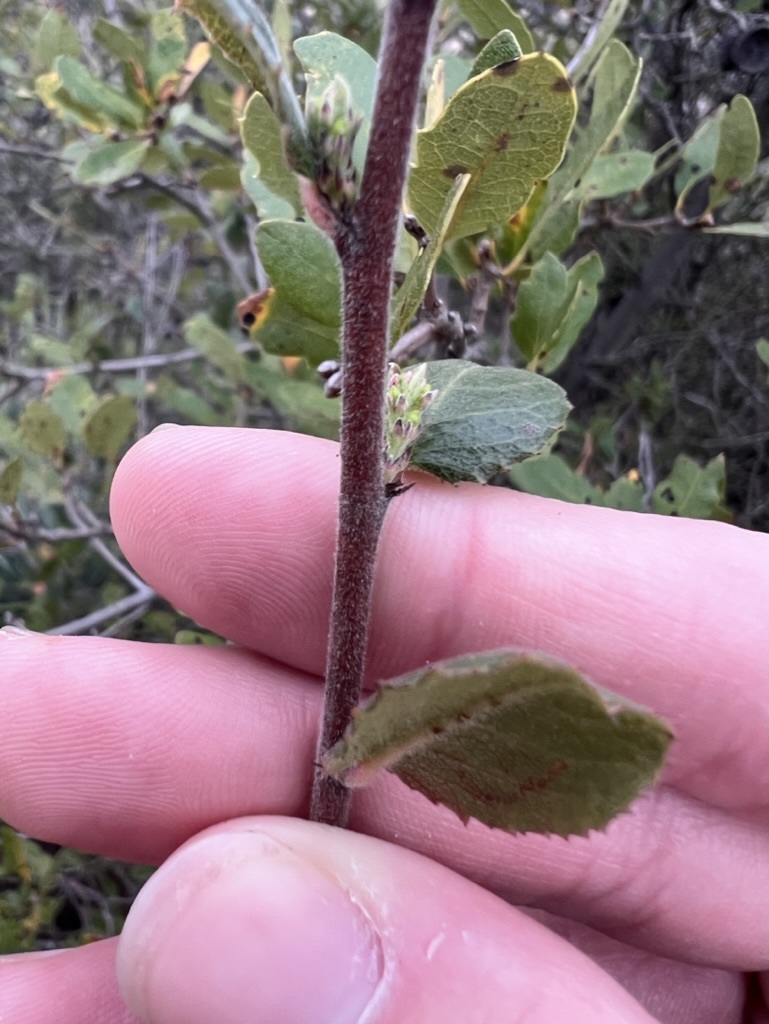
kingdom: Plantae
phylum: Tracheophyta
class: Magnoliopsida
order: Rosales
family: Rhamnaceae
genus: Endotropis
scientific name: Endotropis crocea
